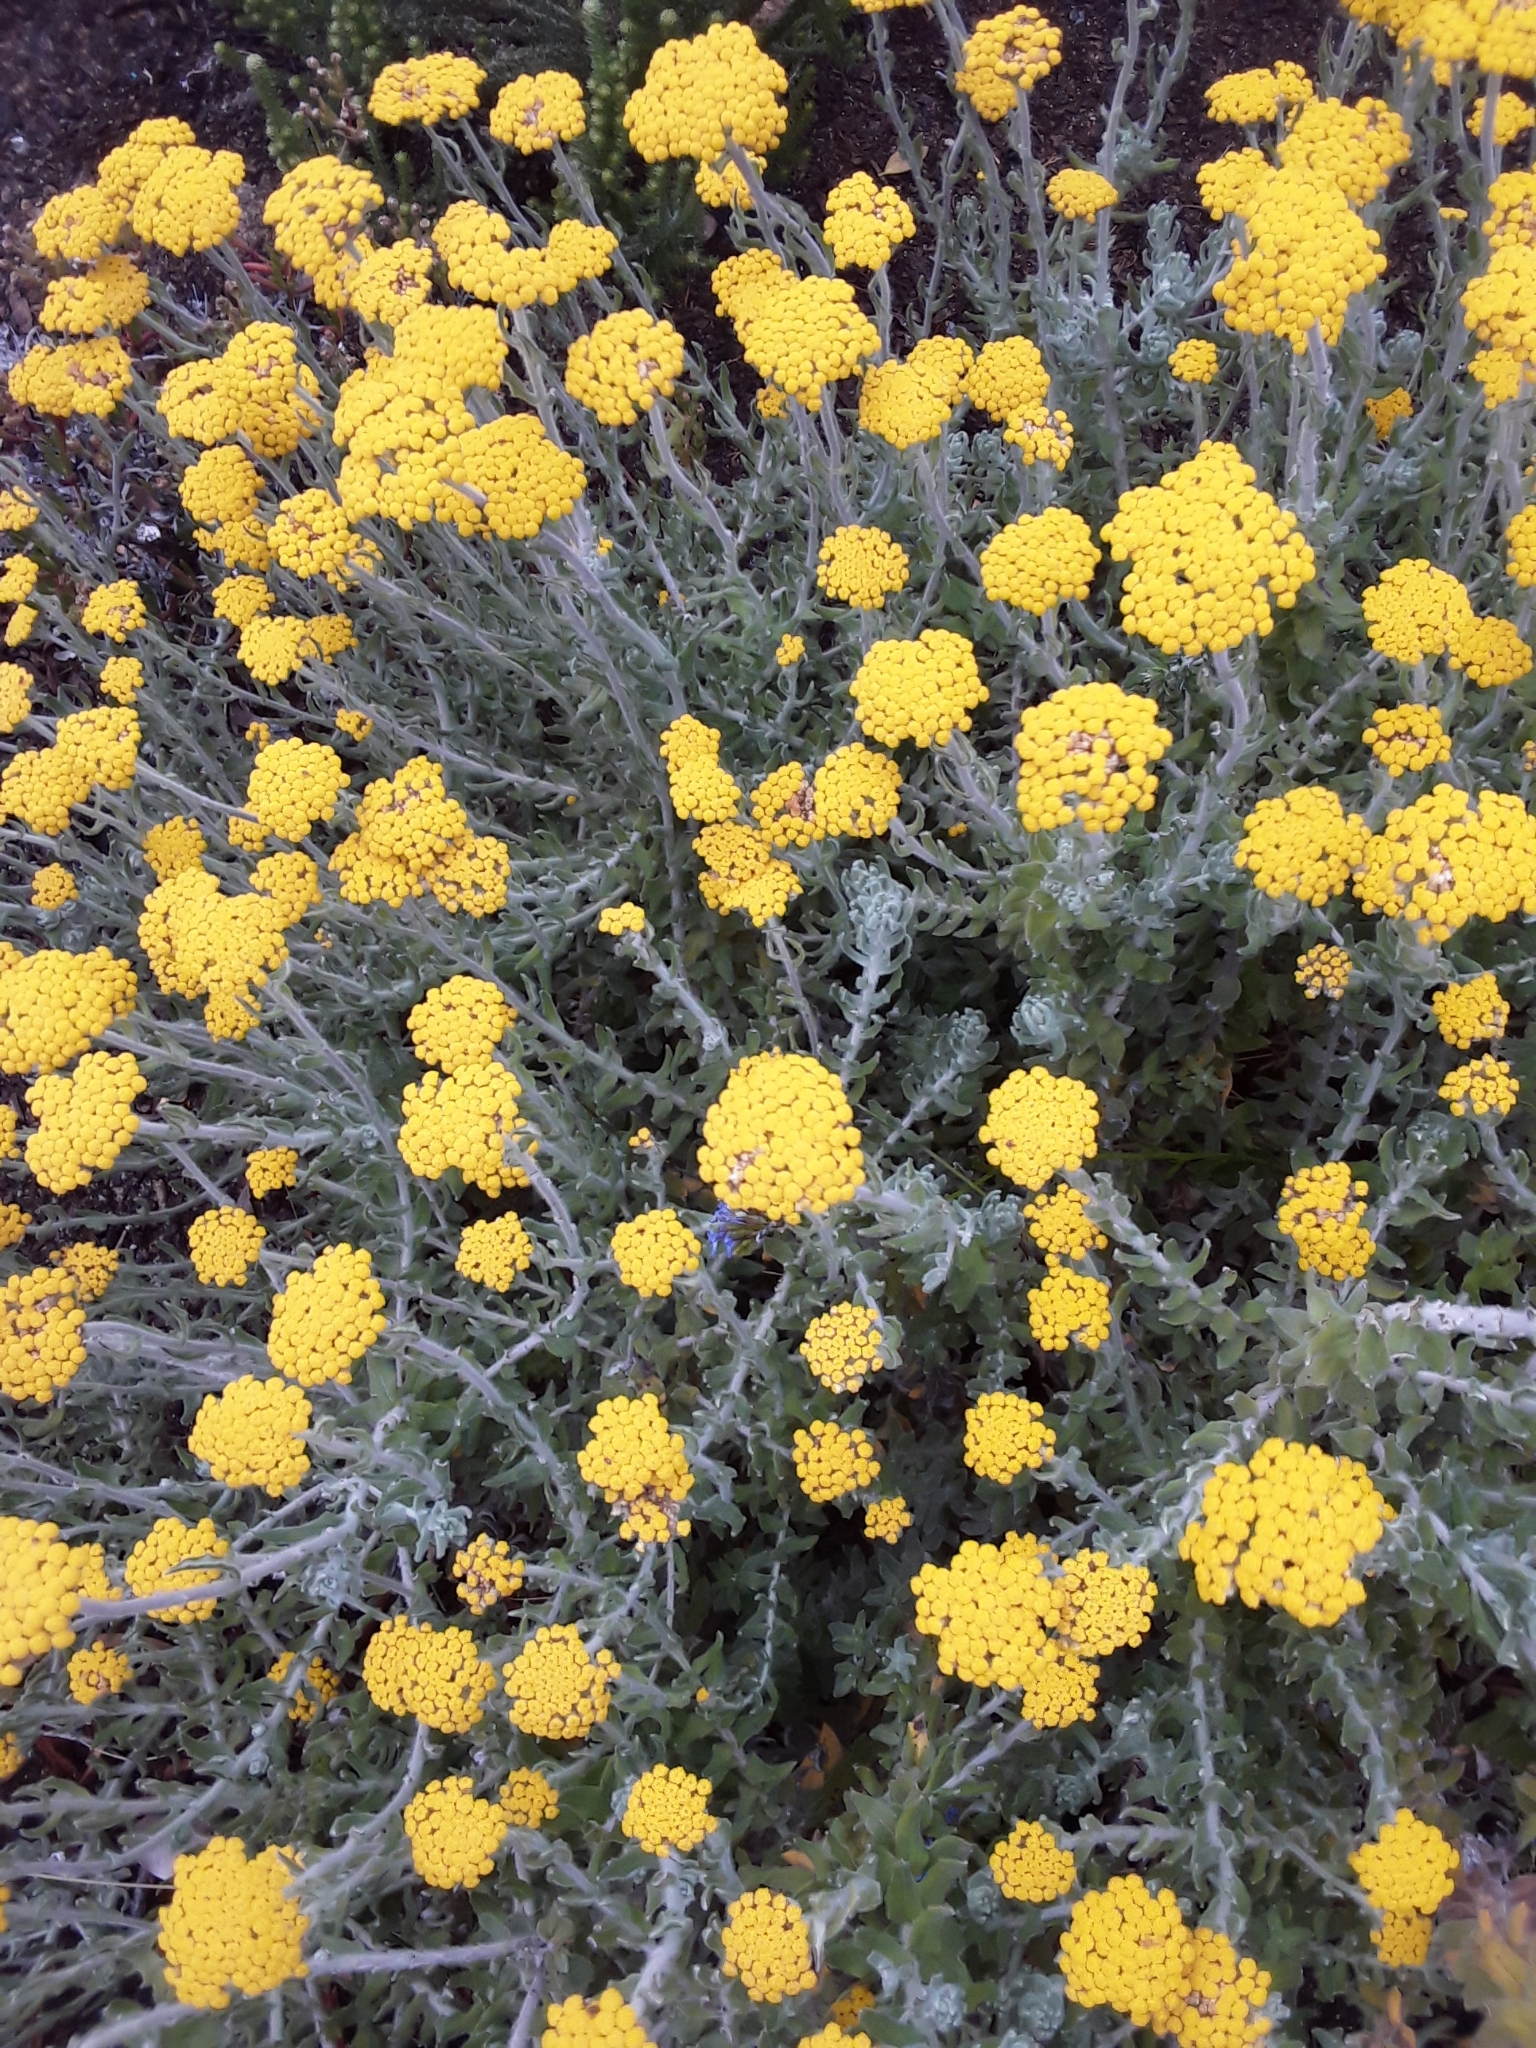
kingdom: Plantae
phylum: Tracheophyta
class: Magnoliopsida
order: Asterales
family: Asteraceae
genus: Helichrysum
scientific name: Helichrysum dasyanthum
